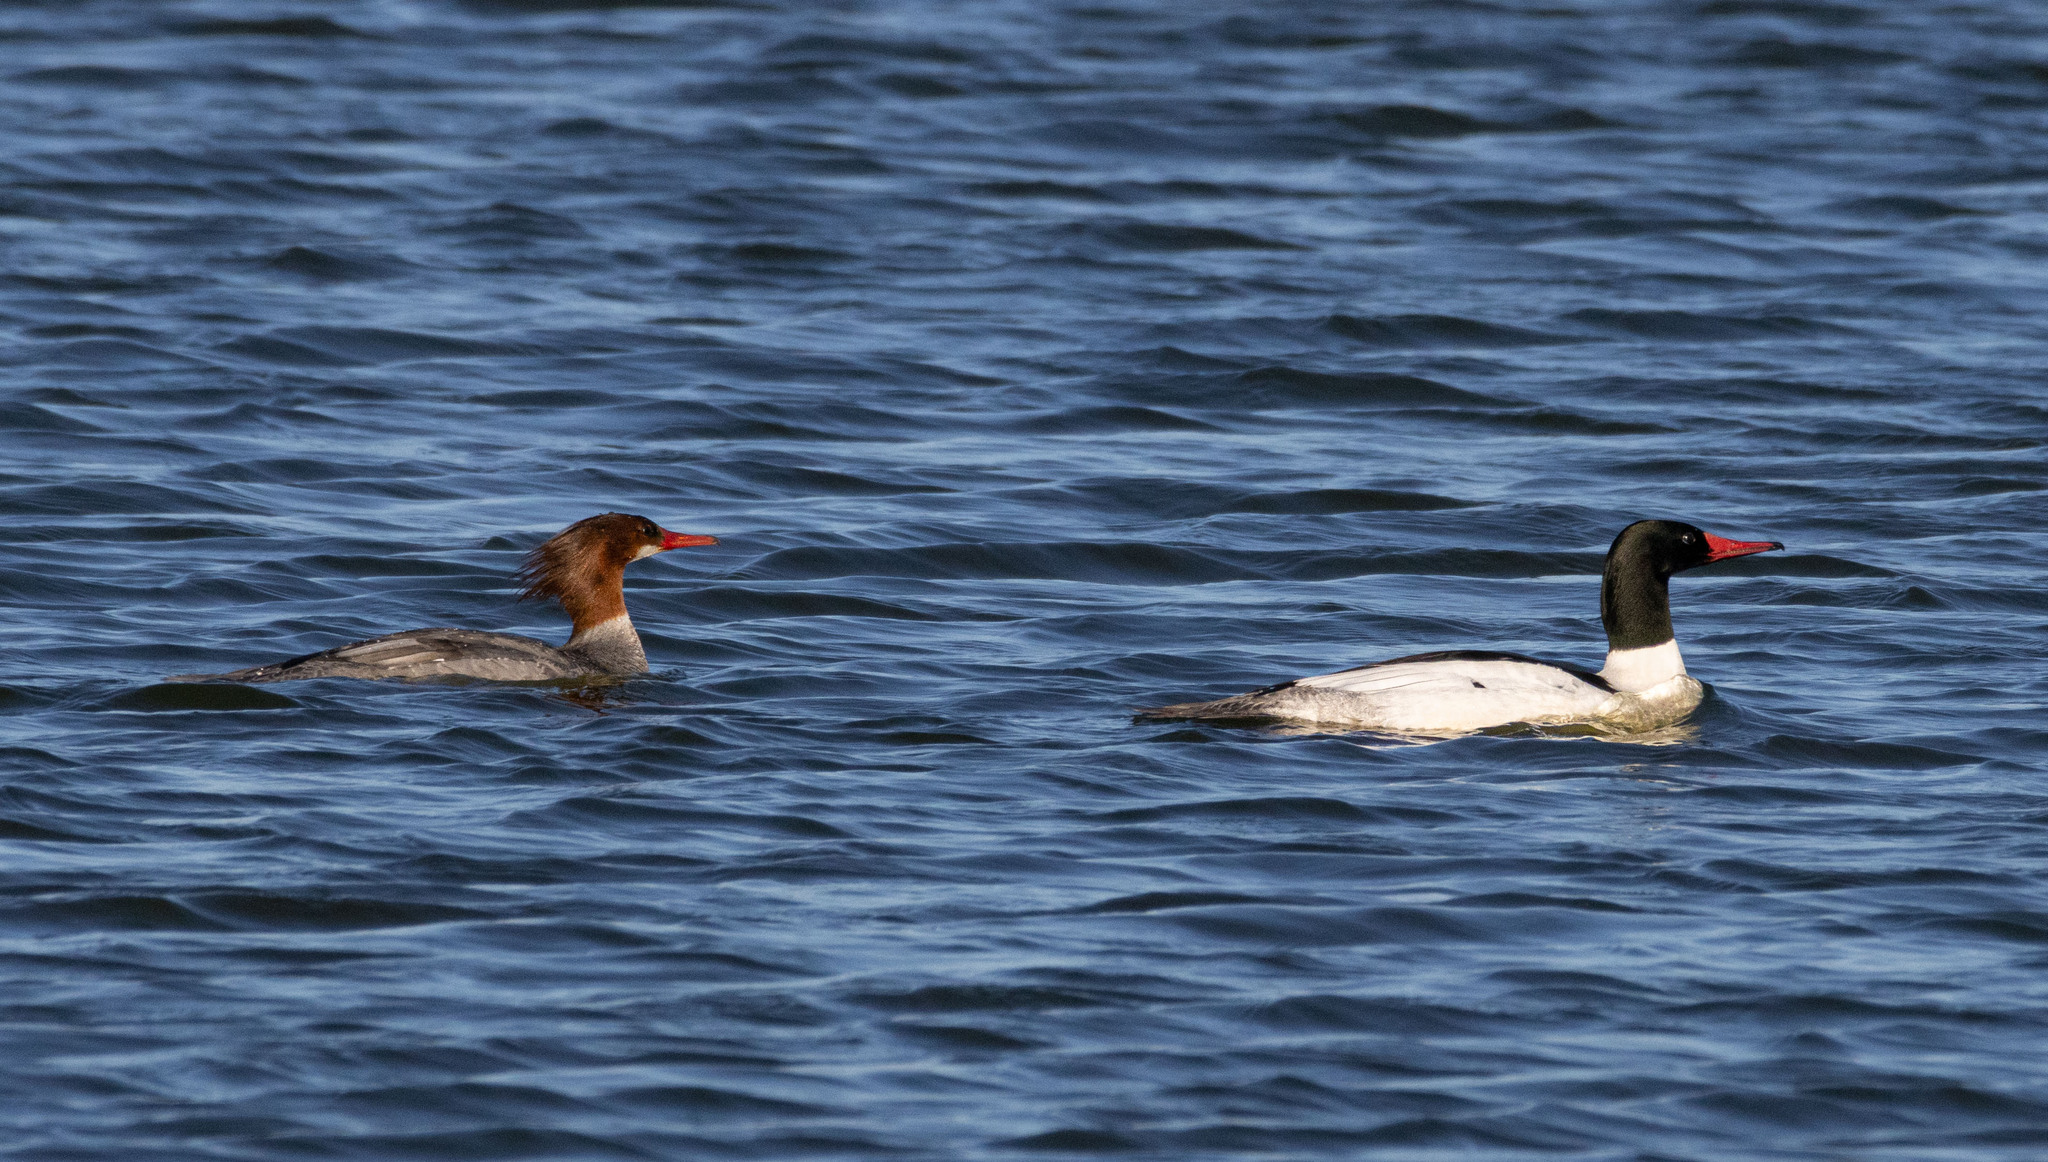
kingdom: Animalia
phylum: Chordata
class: Aves
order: Anseriformes
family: Anatidae
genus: Mergus
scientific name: Mergus merganser
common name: Common merganser
